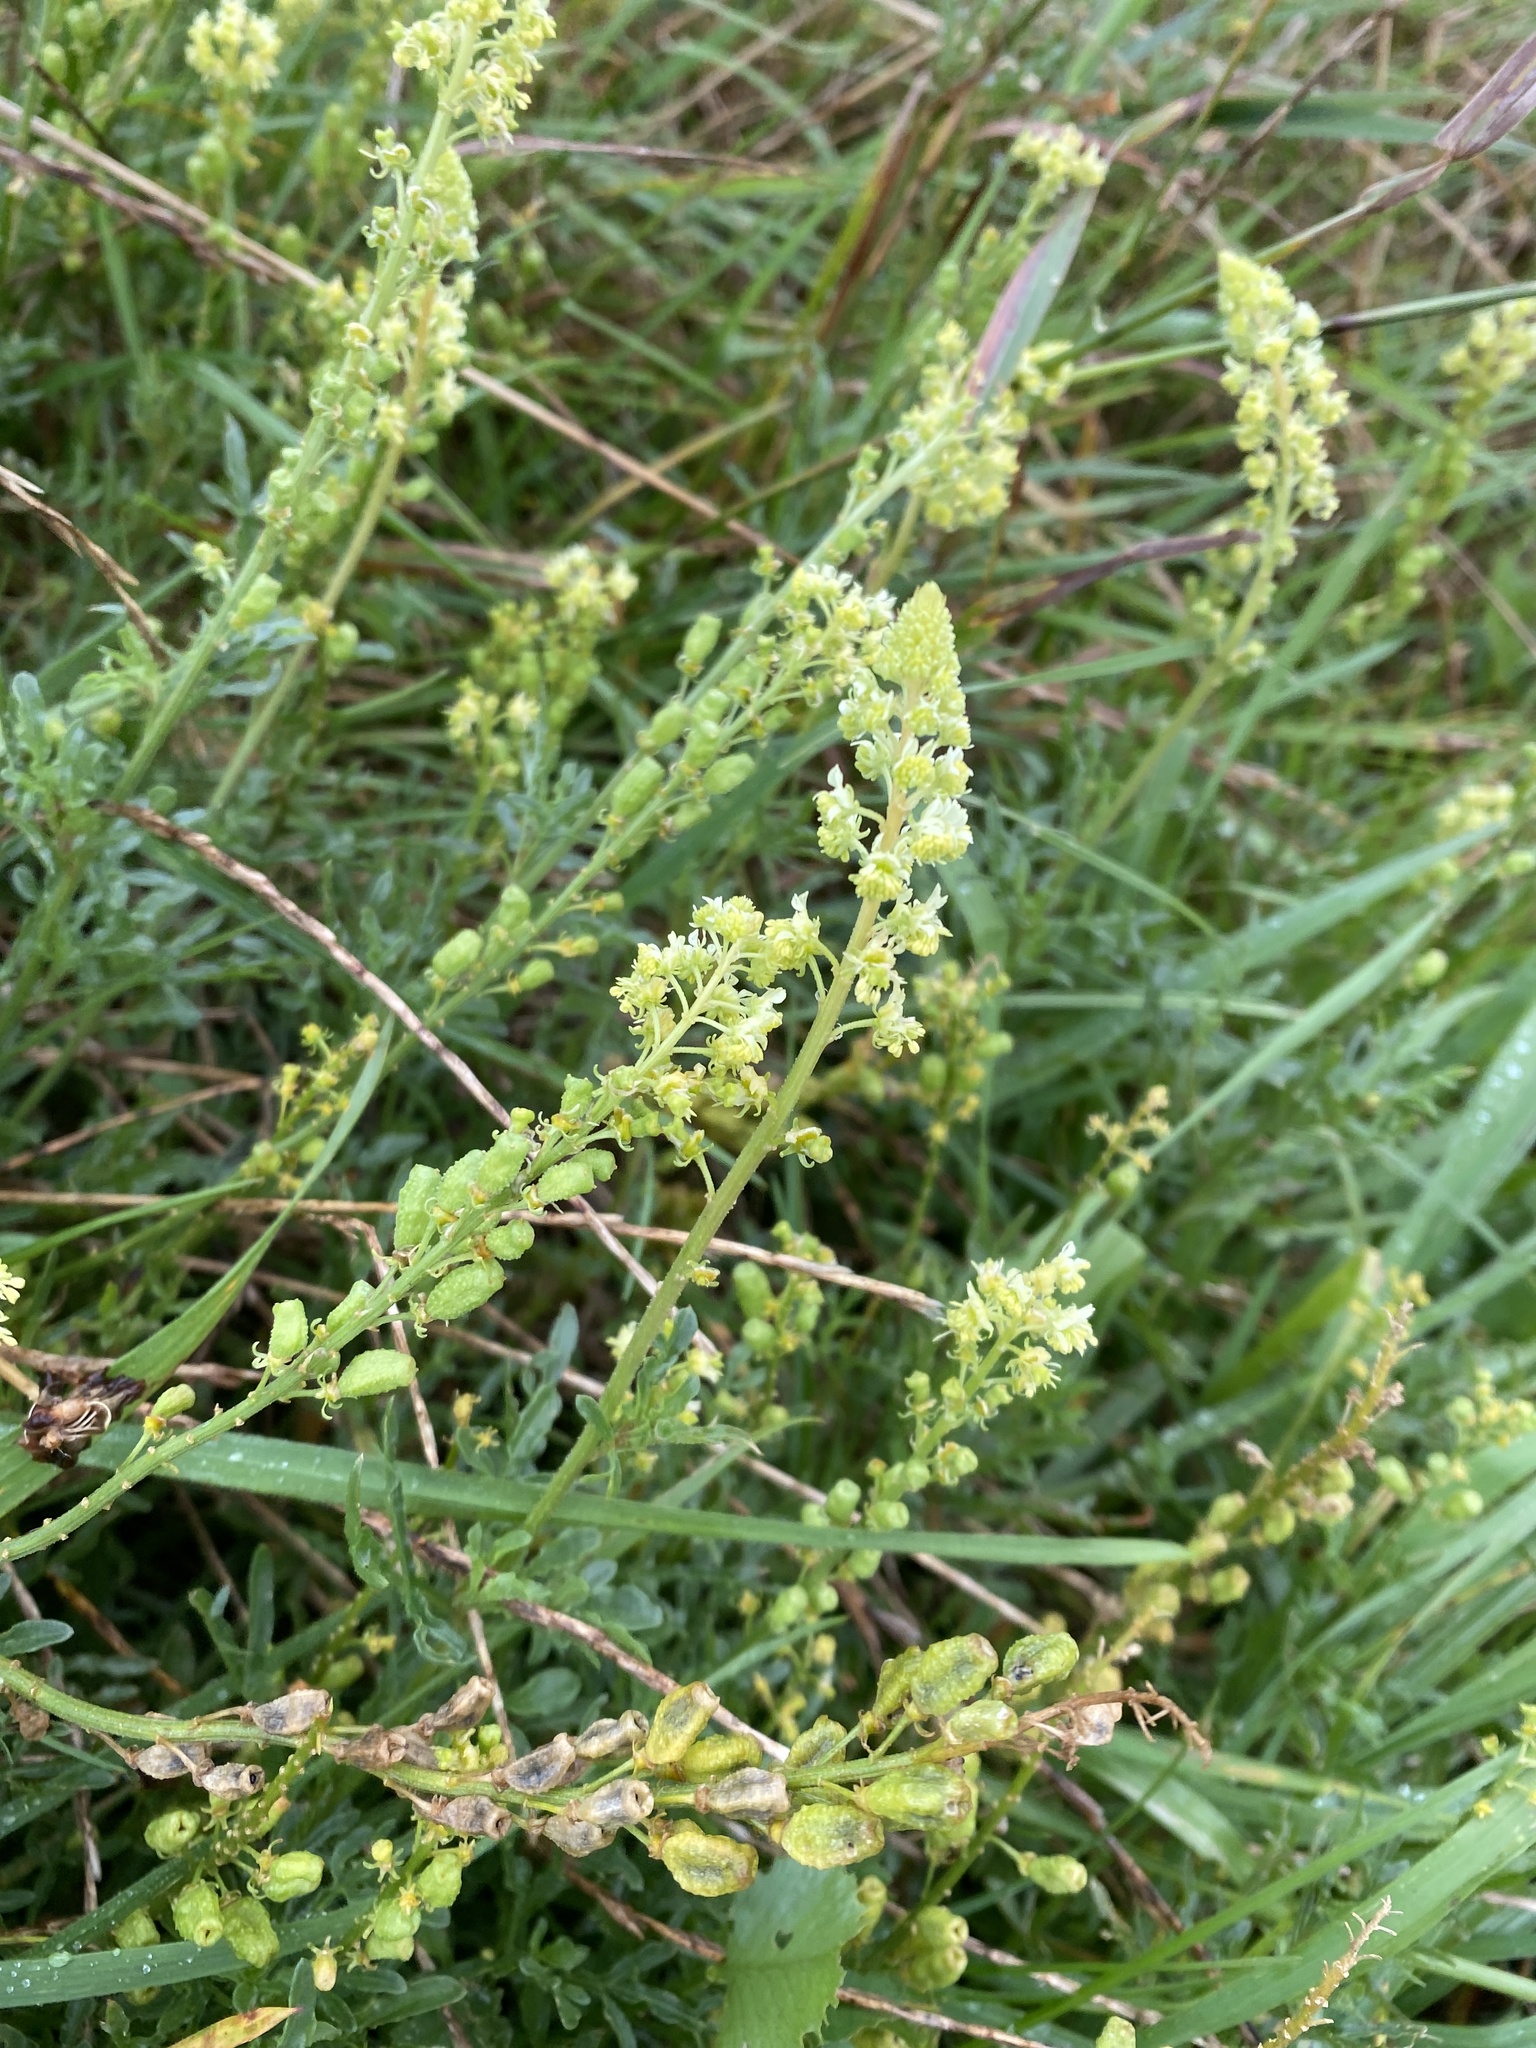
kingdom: Plantae
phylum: Tracheophyta
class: Magnoliopsida
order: Brassicales
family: Resedaceae
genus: Reseda
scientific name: Reseda lutea
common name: Wild mignonette
